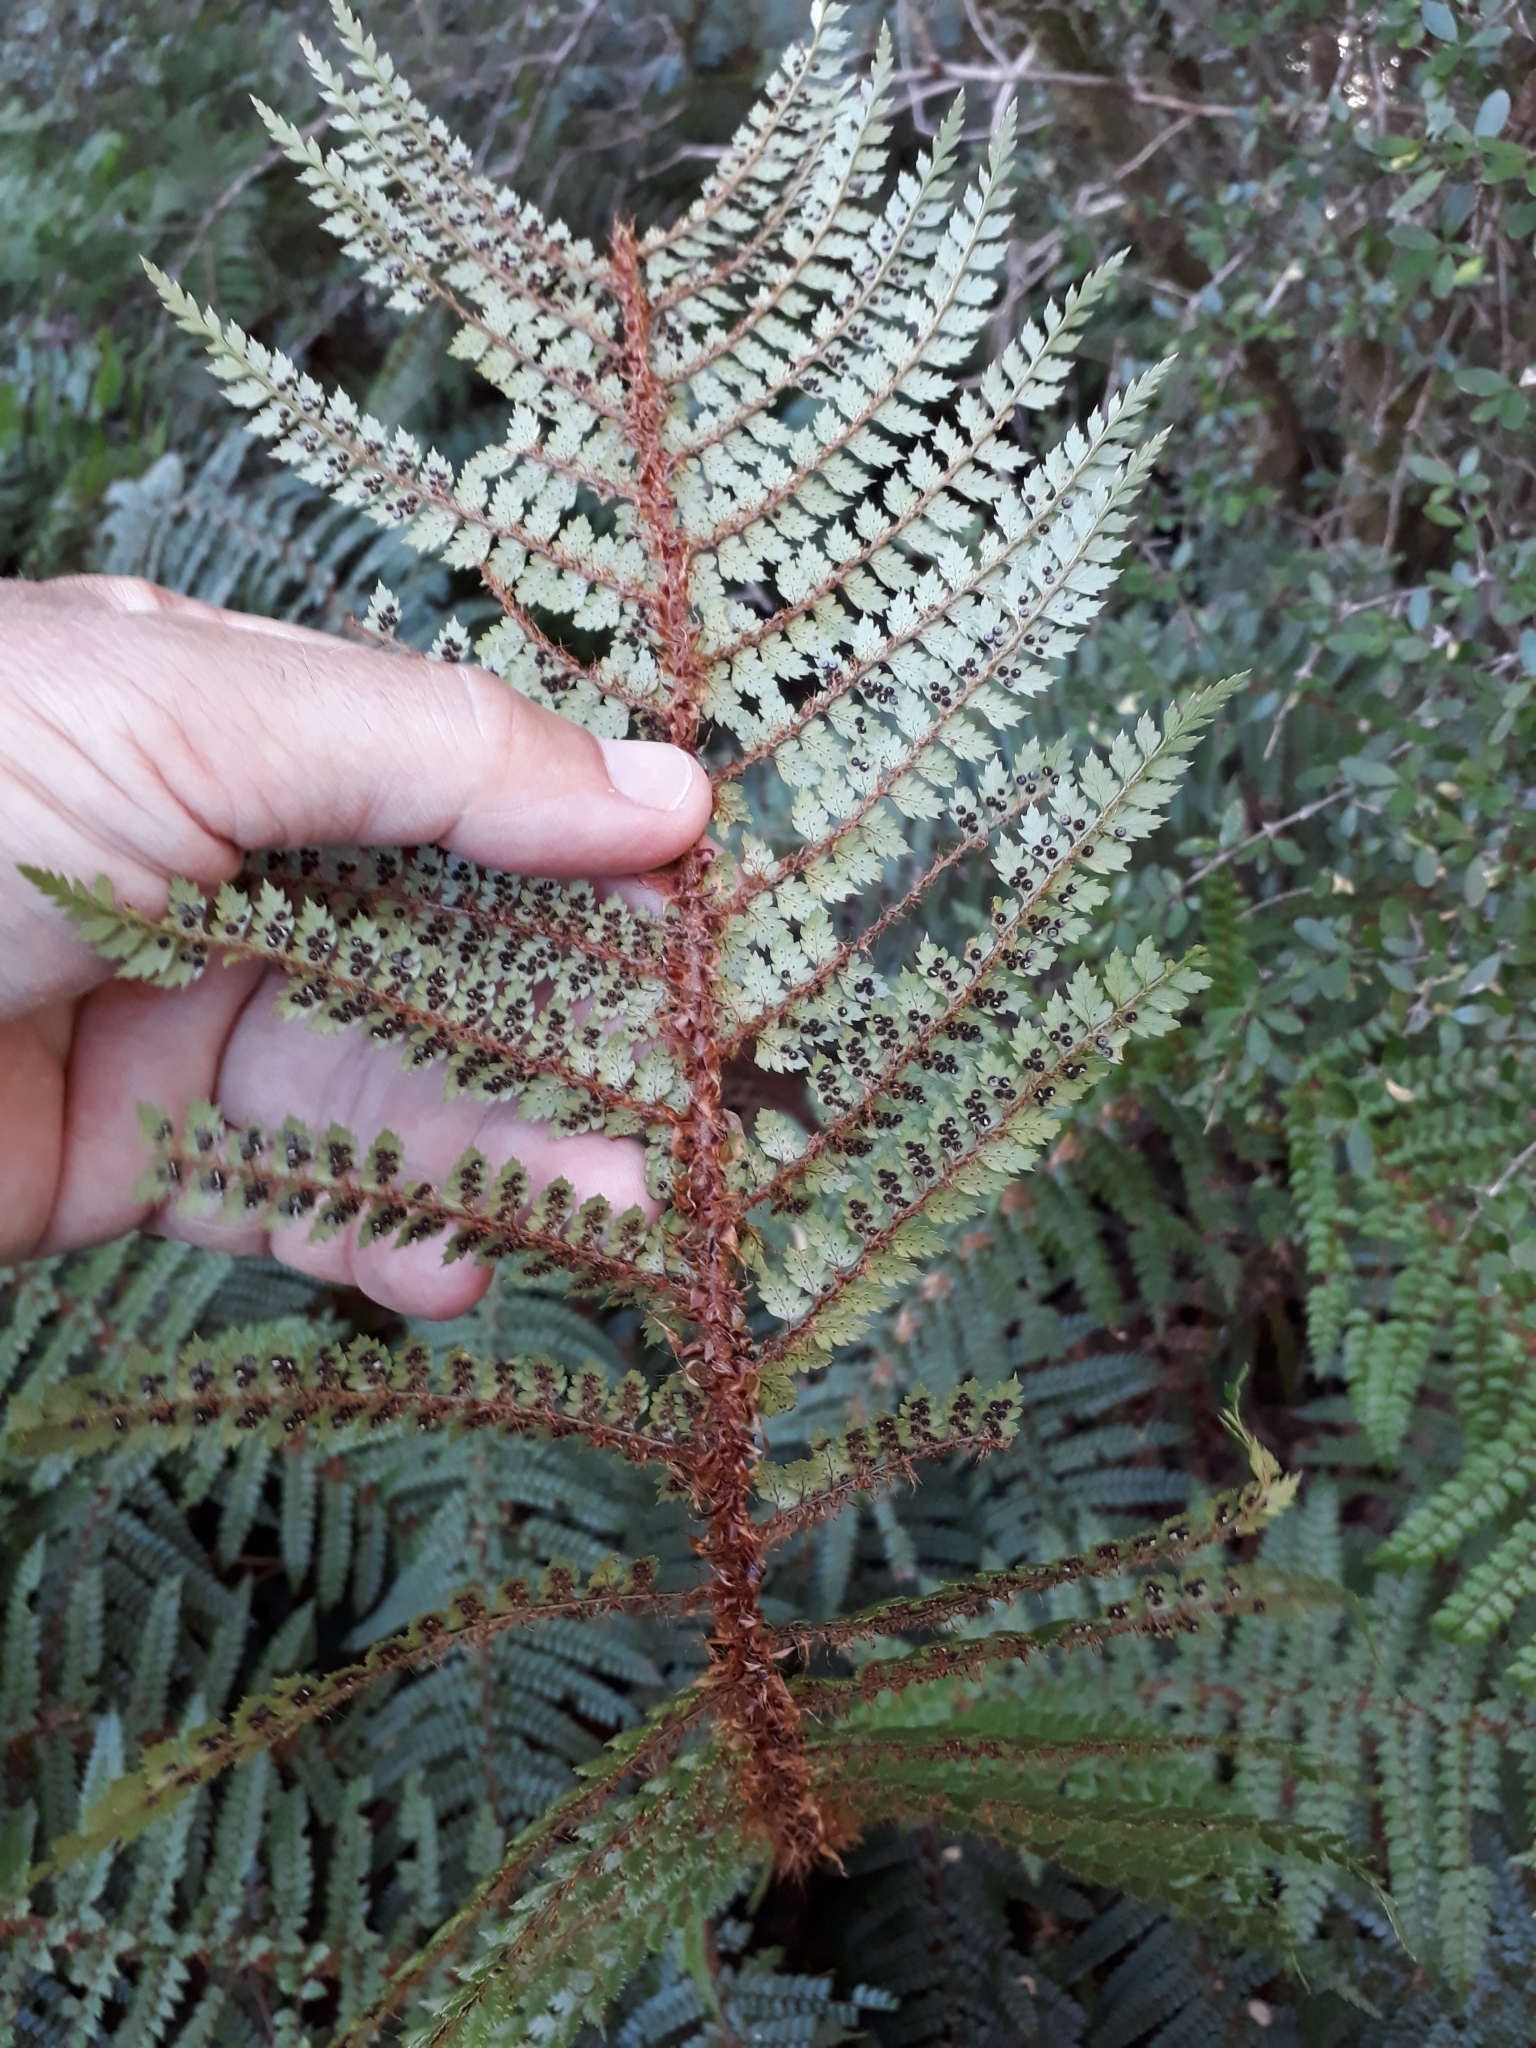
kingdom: Plantae
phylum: Tracheophyta
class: Polypodiopsida
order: Polypodiales
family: Dryopteridaceae
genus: Polystichum
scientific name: Polystichum vestitum
